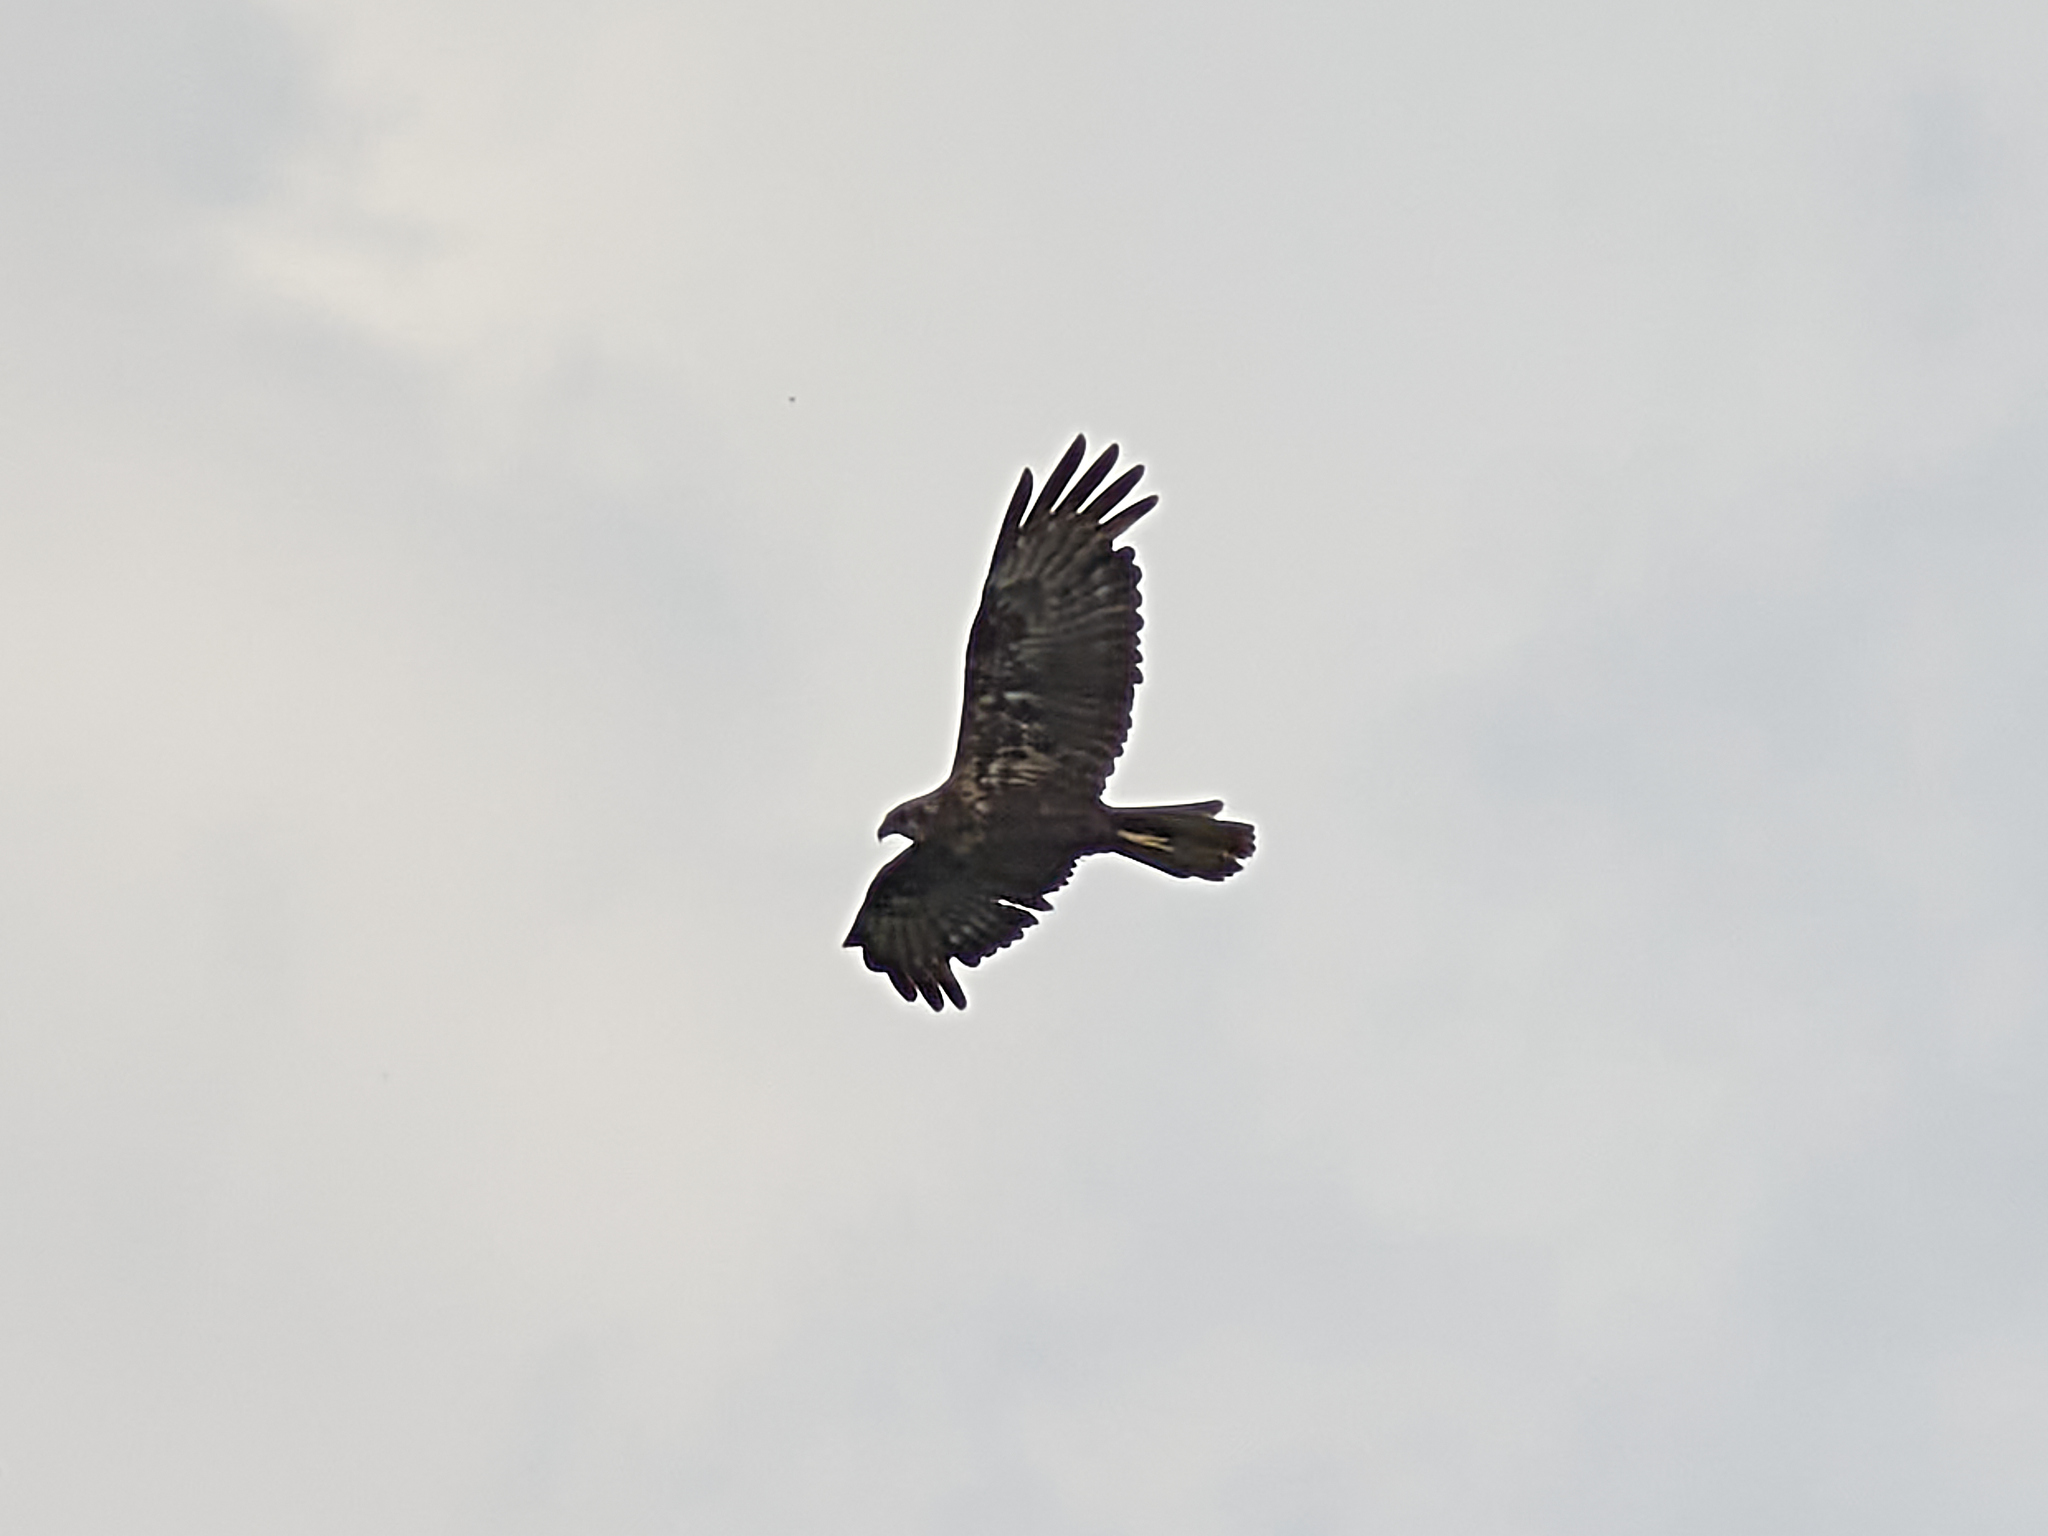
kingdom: Animalia
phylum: Chordata
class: Aves
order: Accipitriformes
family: Accipitridae
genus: Circus
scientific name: Circus aeruginosus
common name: Western marsh harrier
